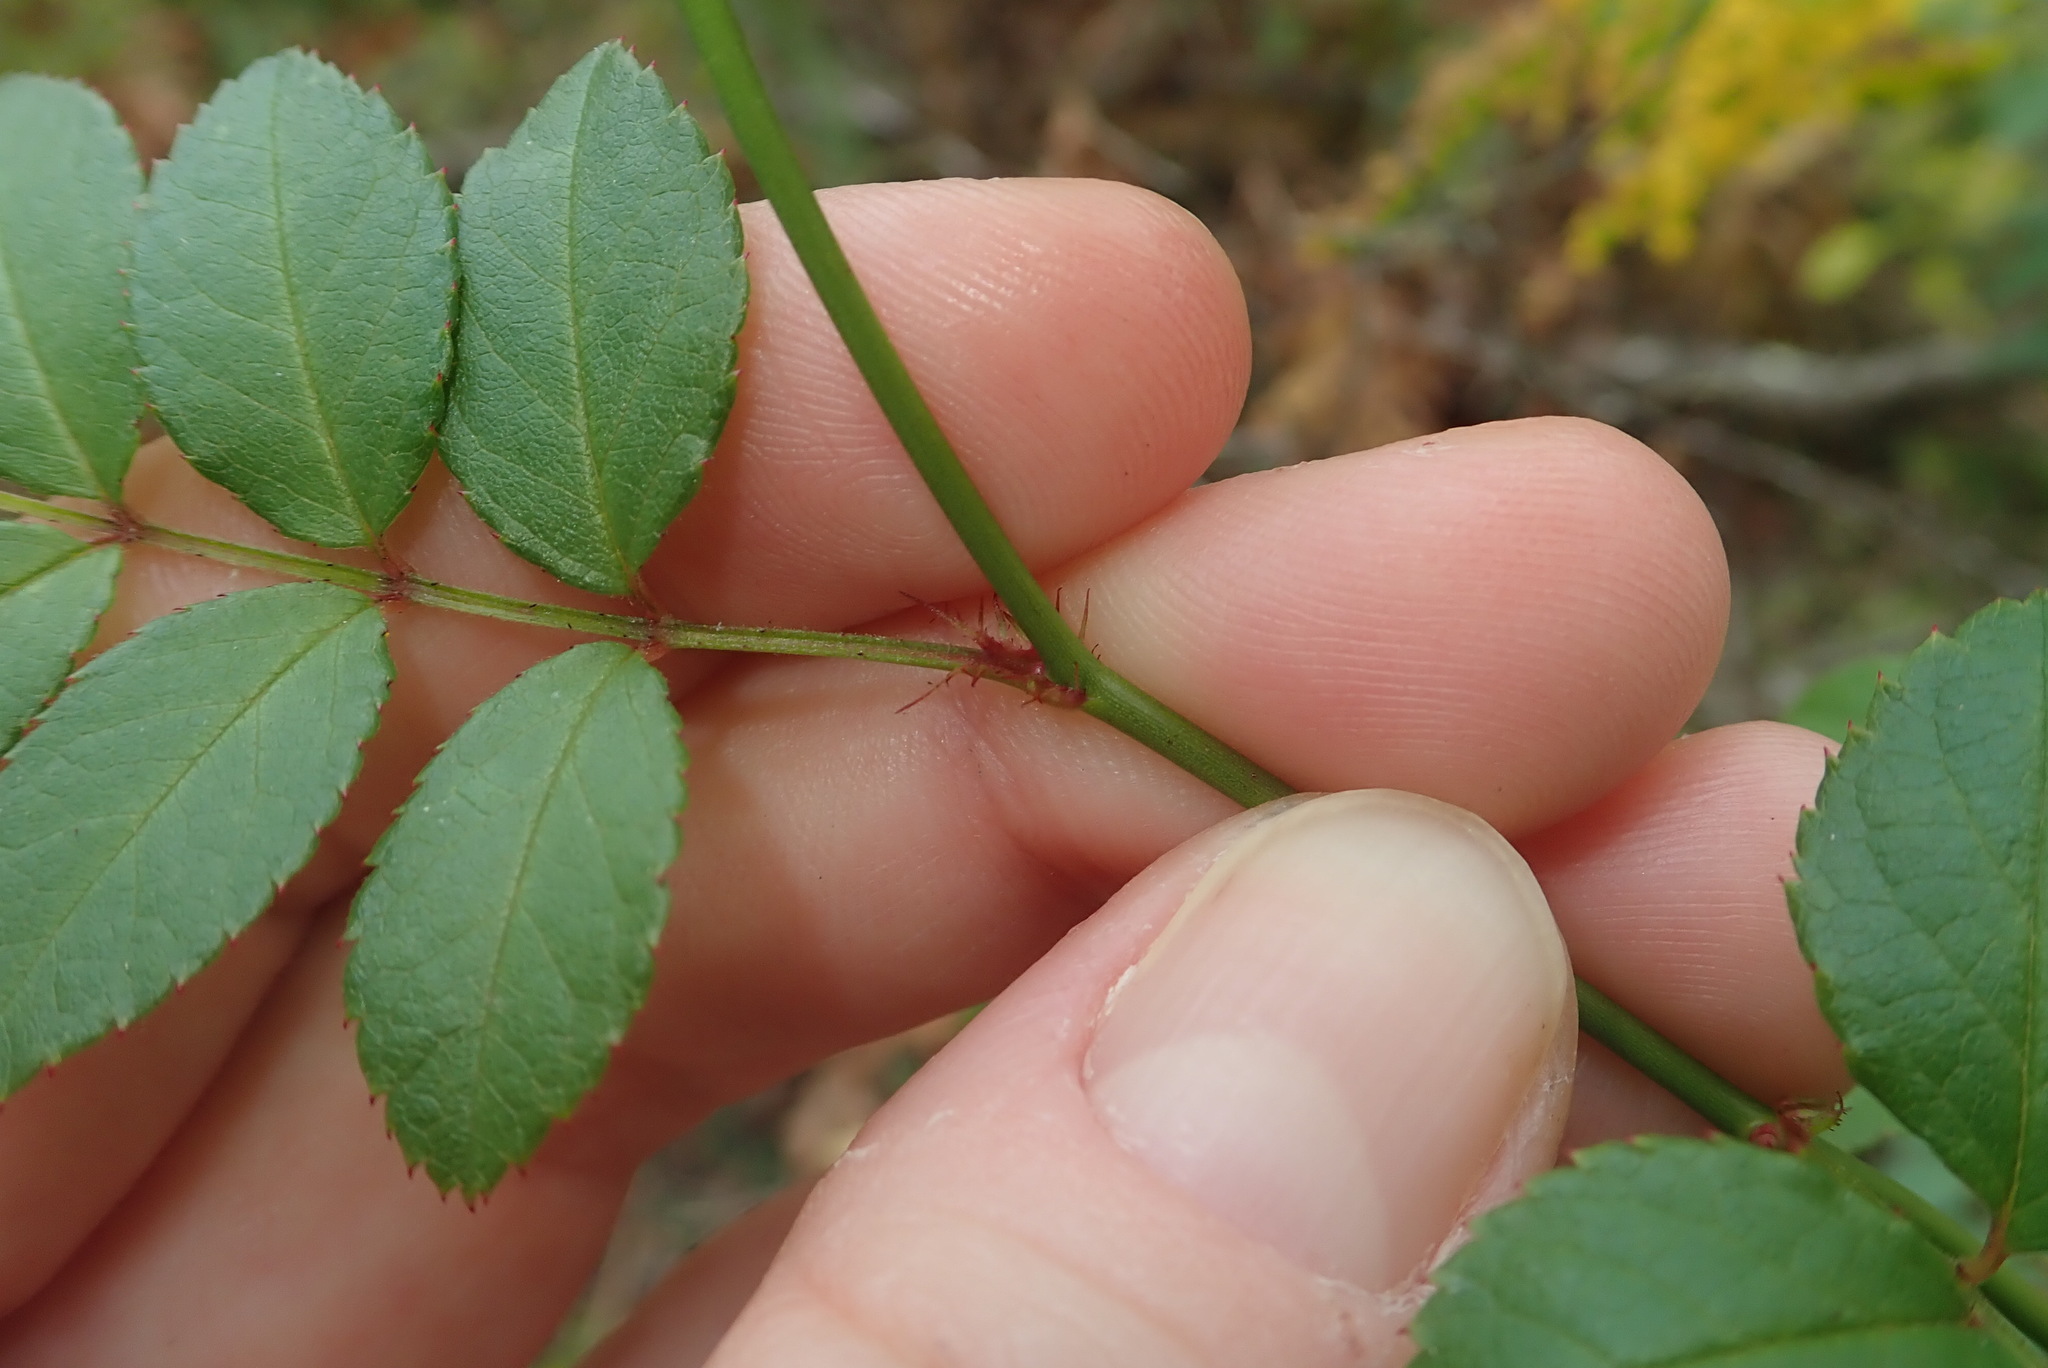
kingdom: Plantae
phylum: Tracheophyta
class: Magnoliopsida
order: Rosales
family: Rosaceae
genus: Rosa
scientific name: Rosa multiflora
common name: Multiflora rose
